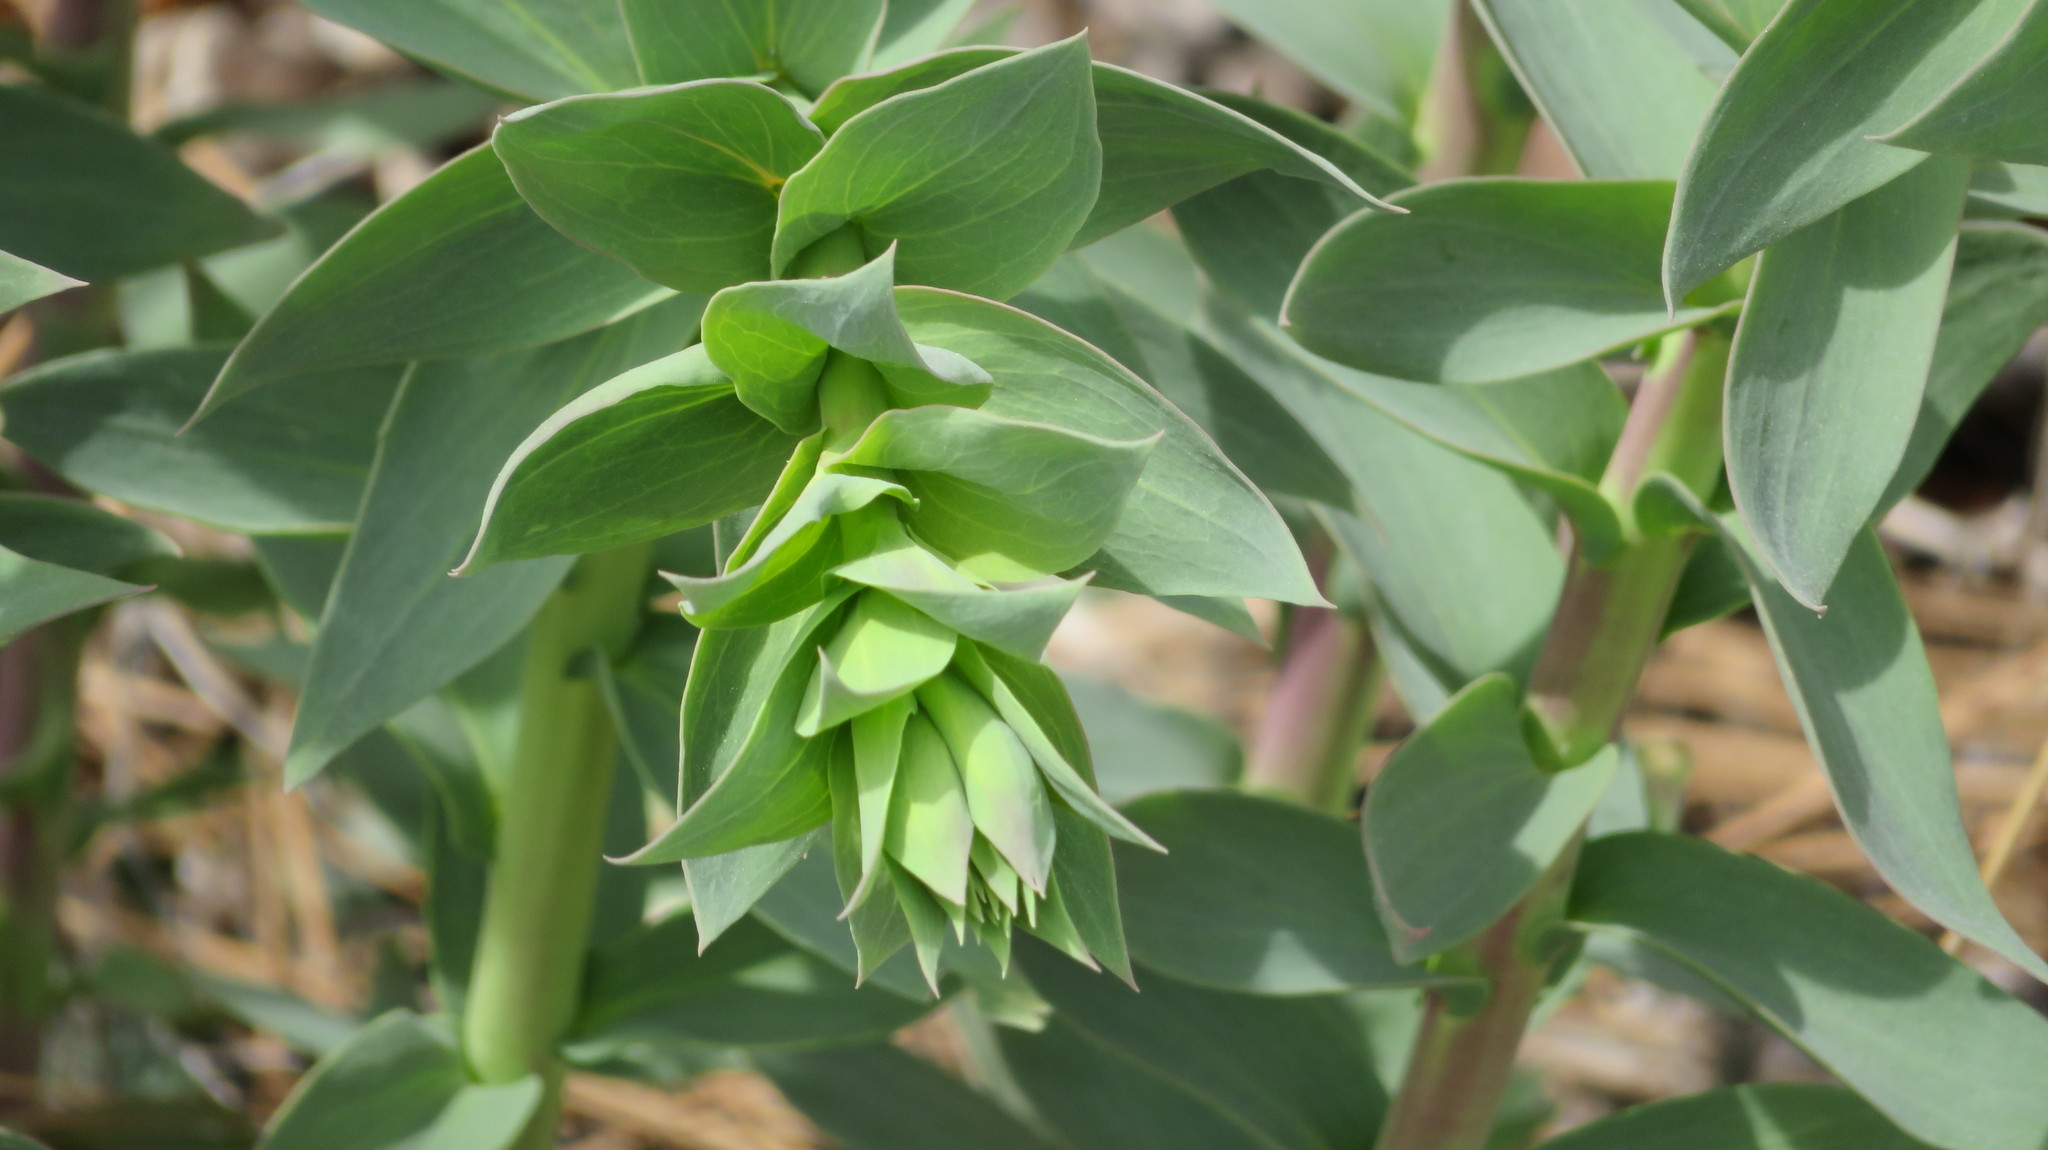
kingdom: Plantae
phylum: Tracheophyta
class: Magnoliopsida
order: Lamiales
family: Plantaginaceae
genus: Linaria
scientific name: Linaria dalmatica
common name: Dalmatian toadflax
